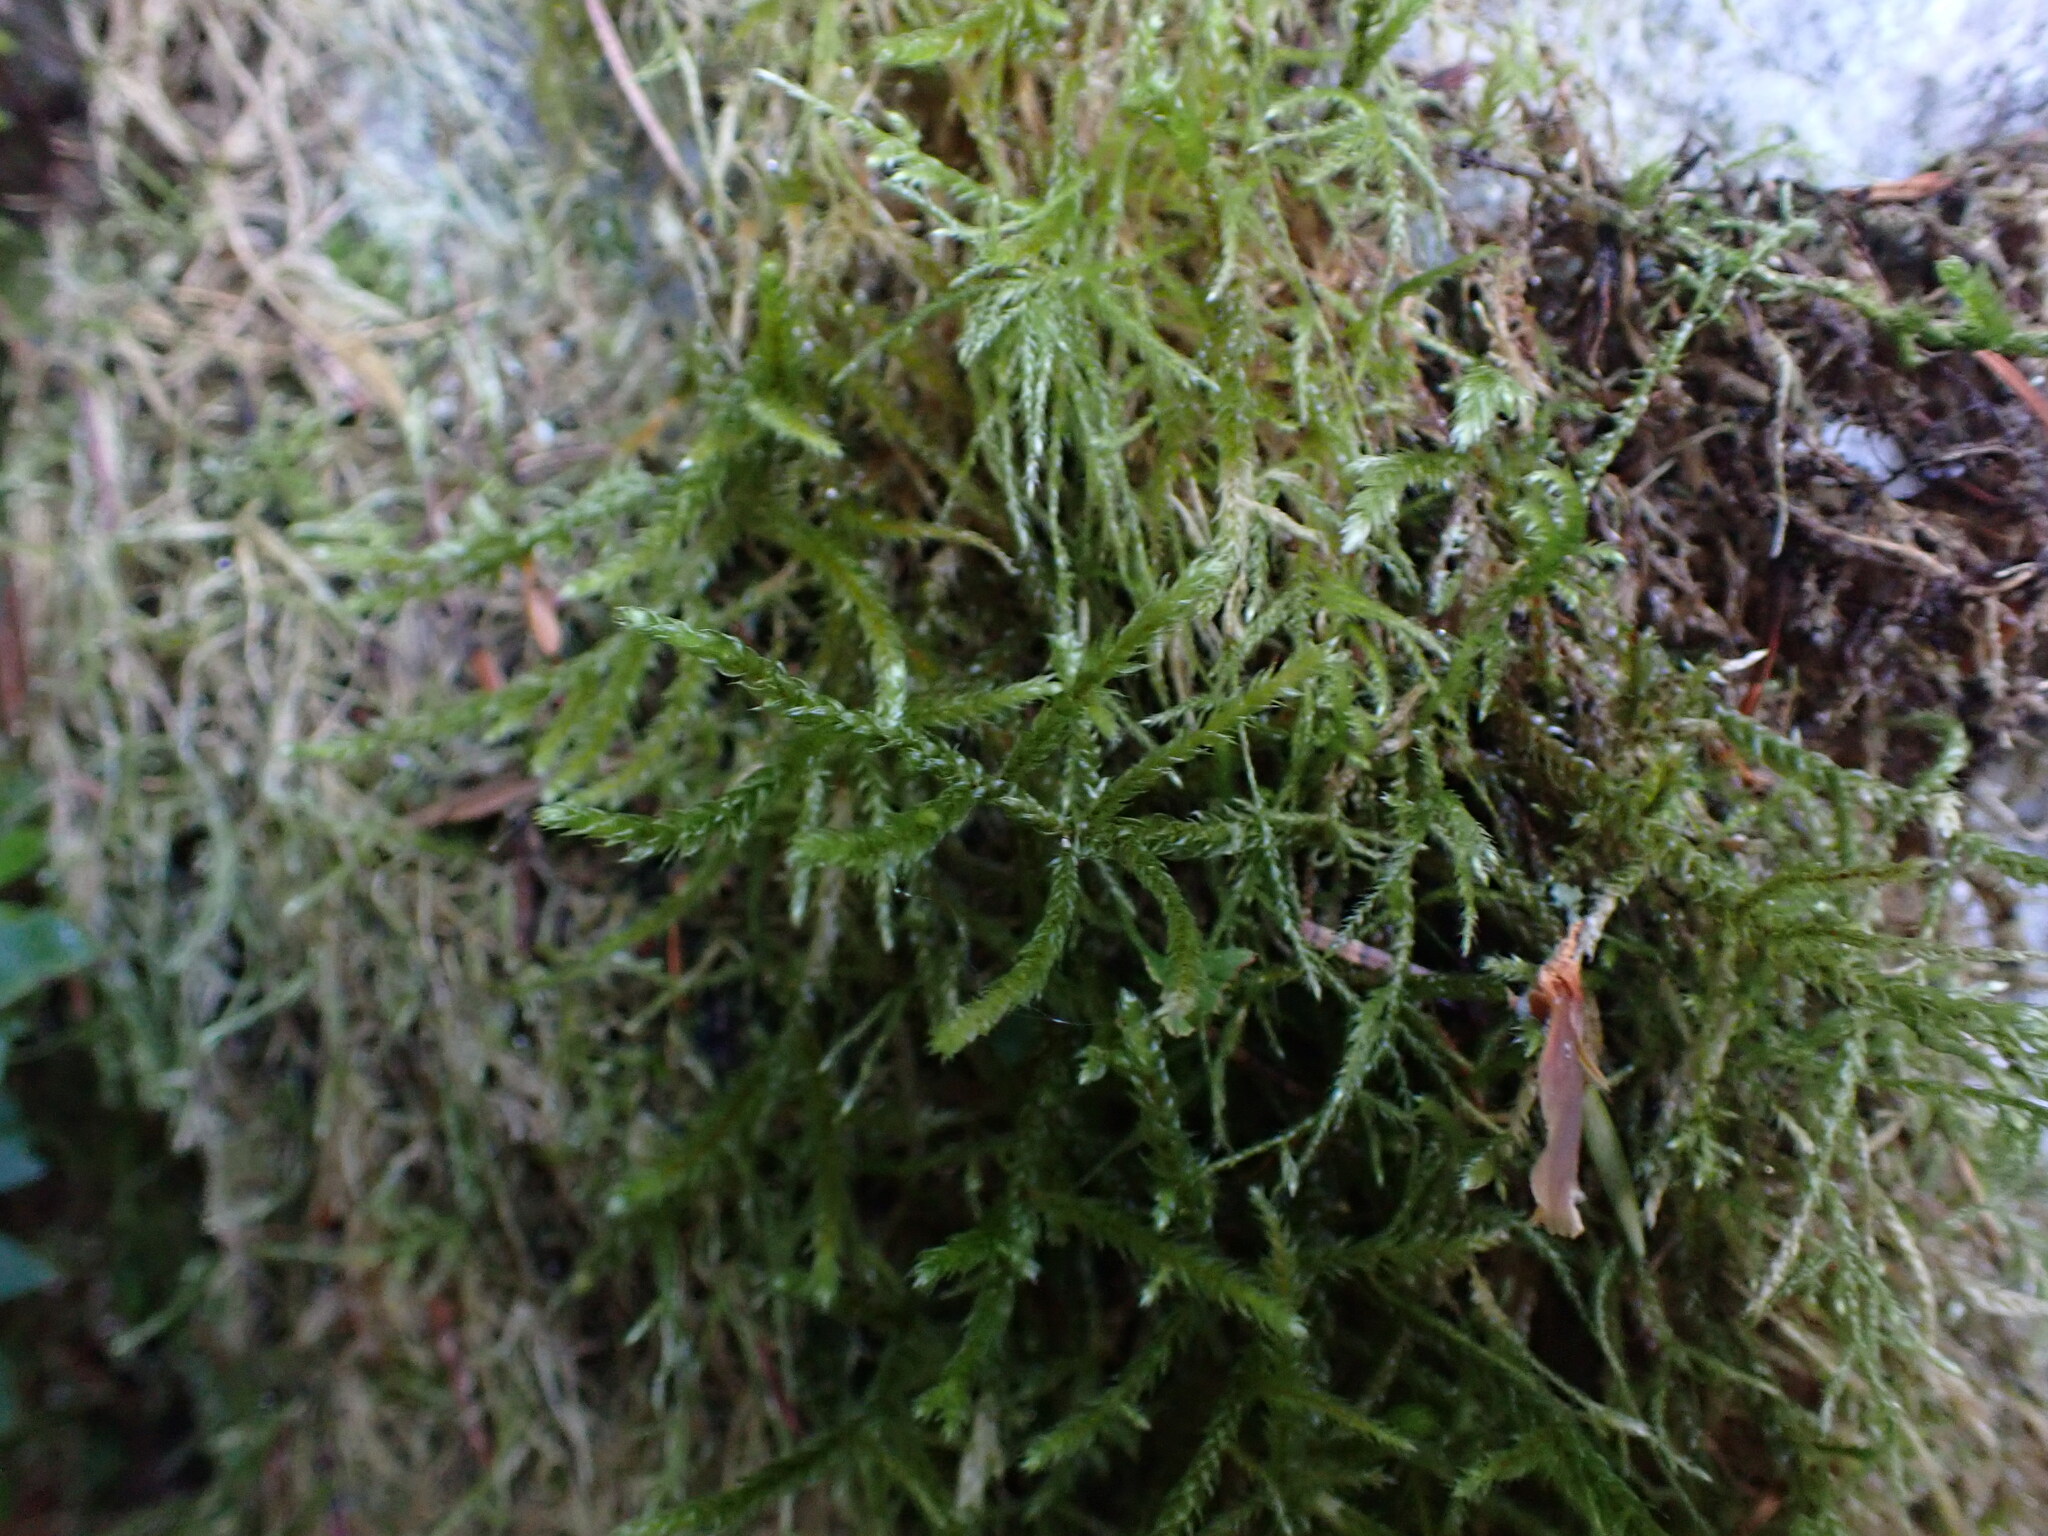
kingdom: Plantae
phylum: Bryophyta
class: Bryopsida
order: Hypnales
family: Antitrichiaceae
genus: Antitrichia
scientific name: Antitrichia curtipendula
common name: Pendulous wing-moss
